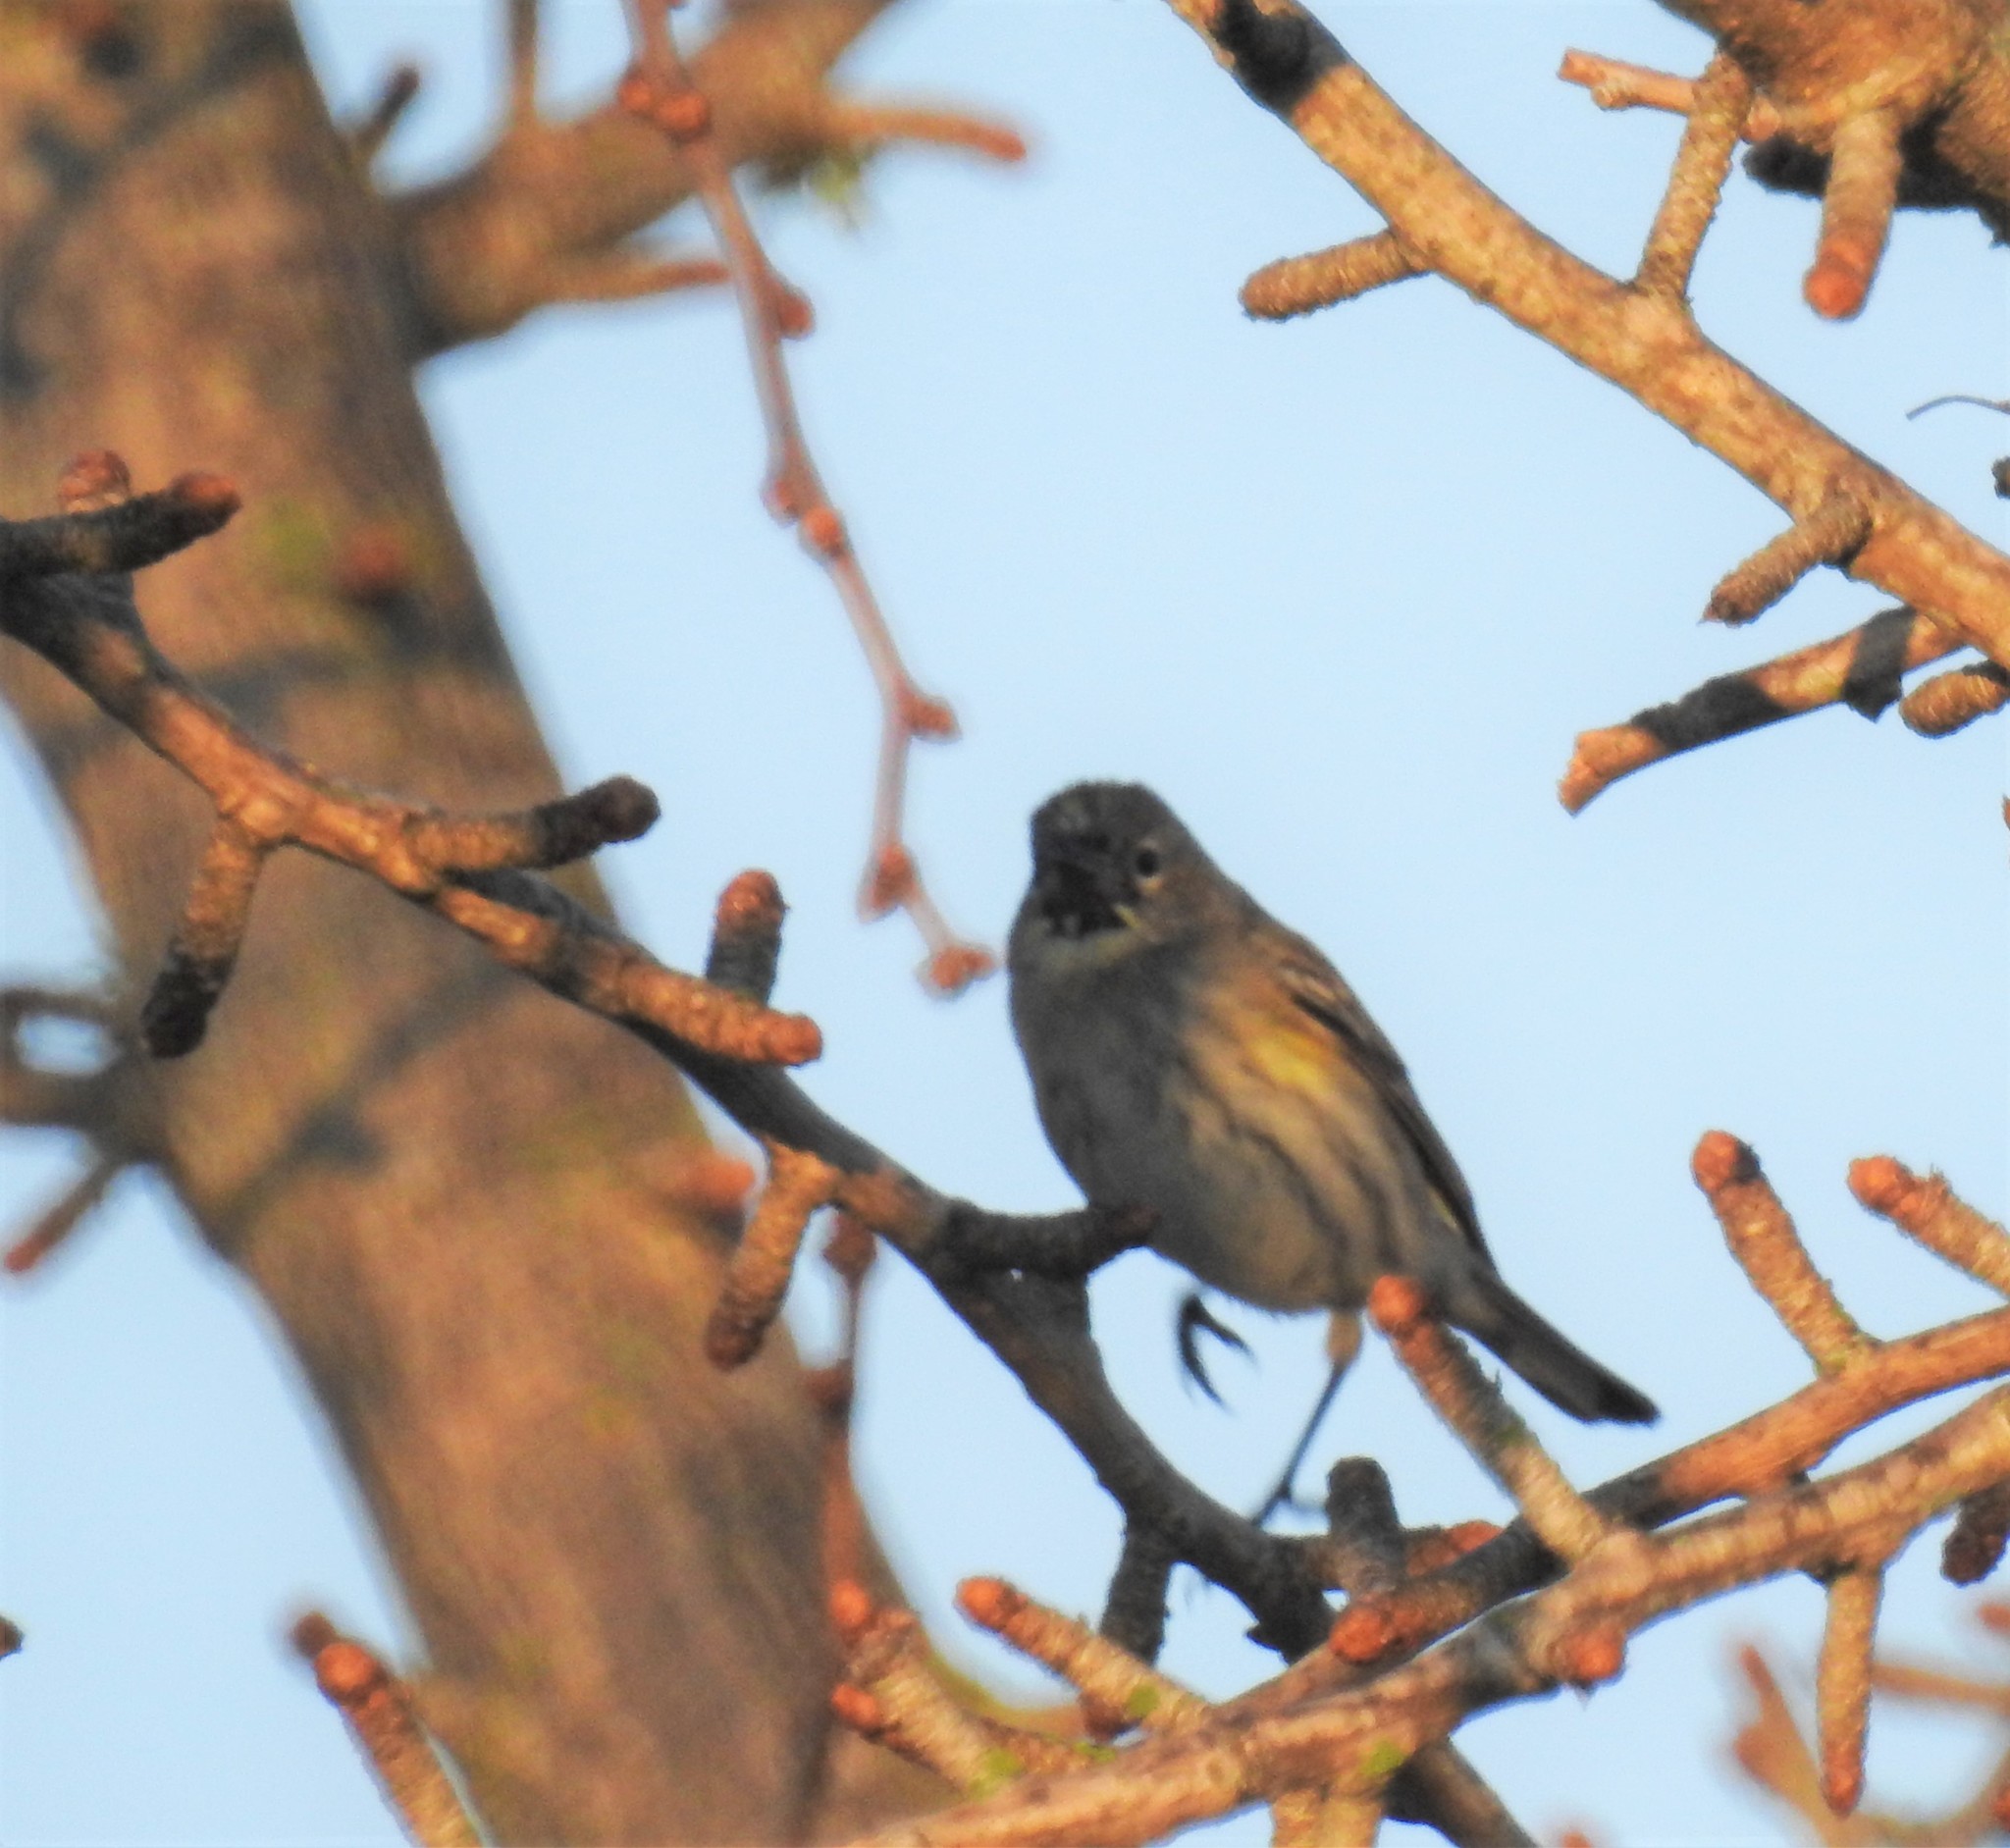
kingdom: Animalia
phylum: Chordata
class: Aves
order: Passeriformes
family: Parulidae
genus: Setophaga
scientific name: Setophaga coronata
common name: Myrtle warbler
